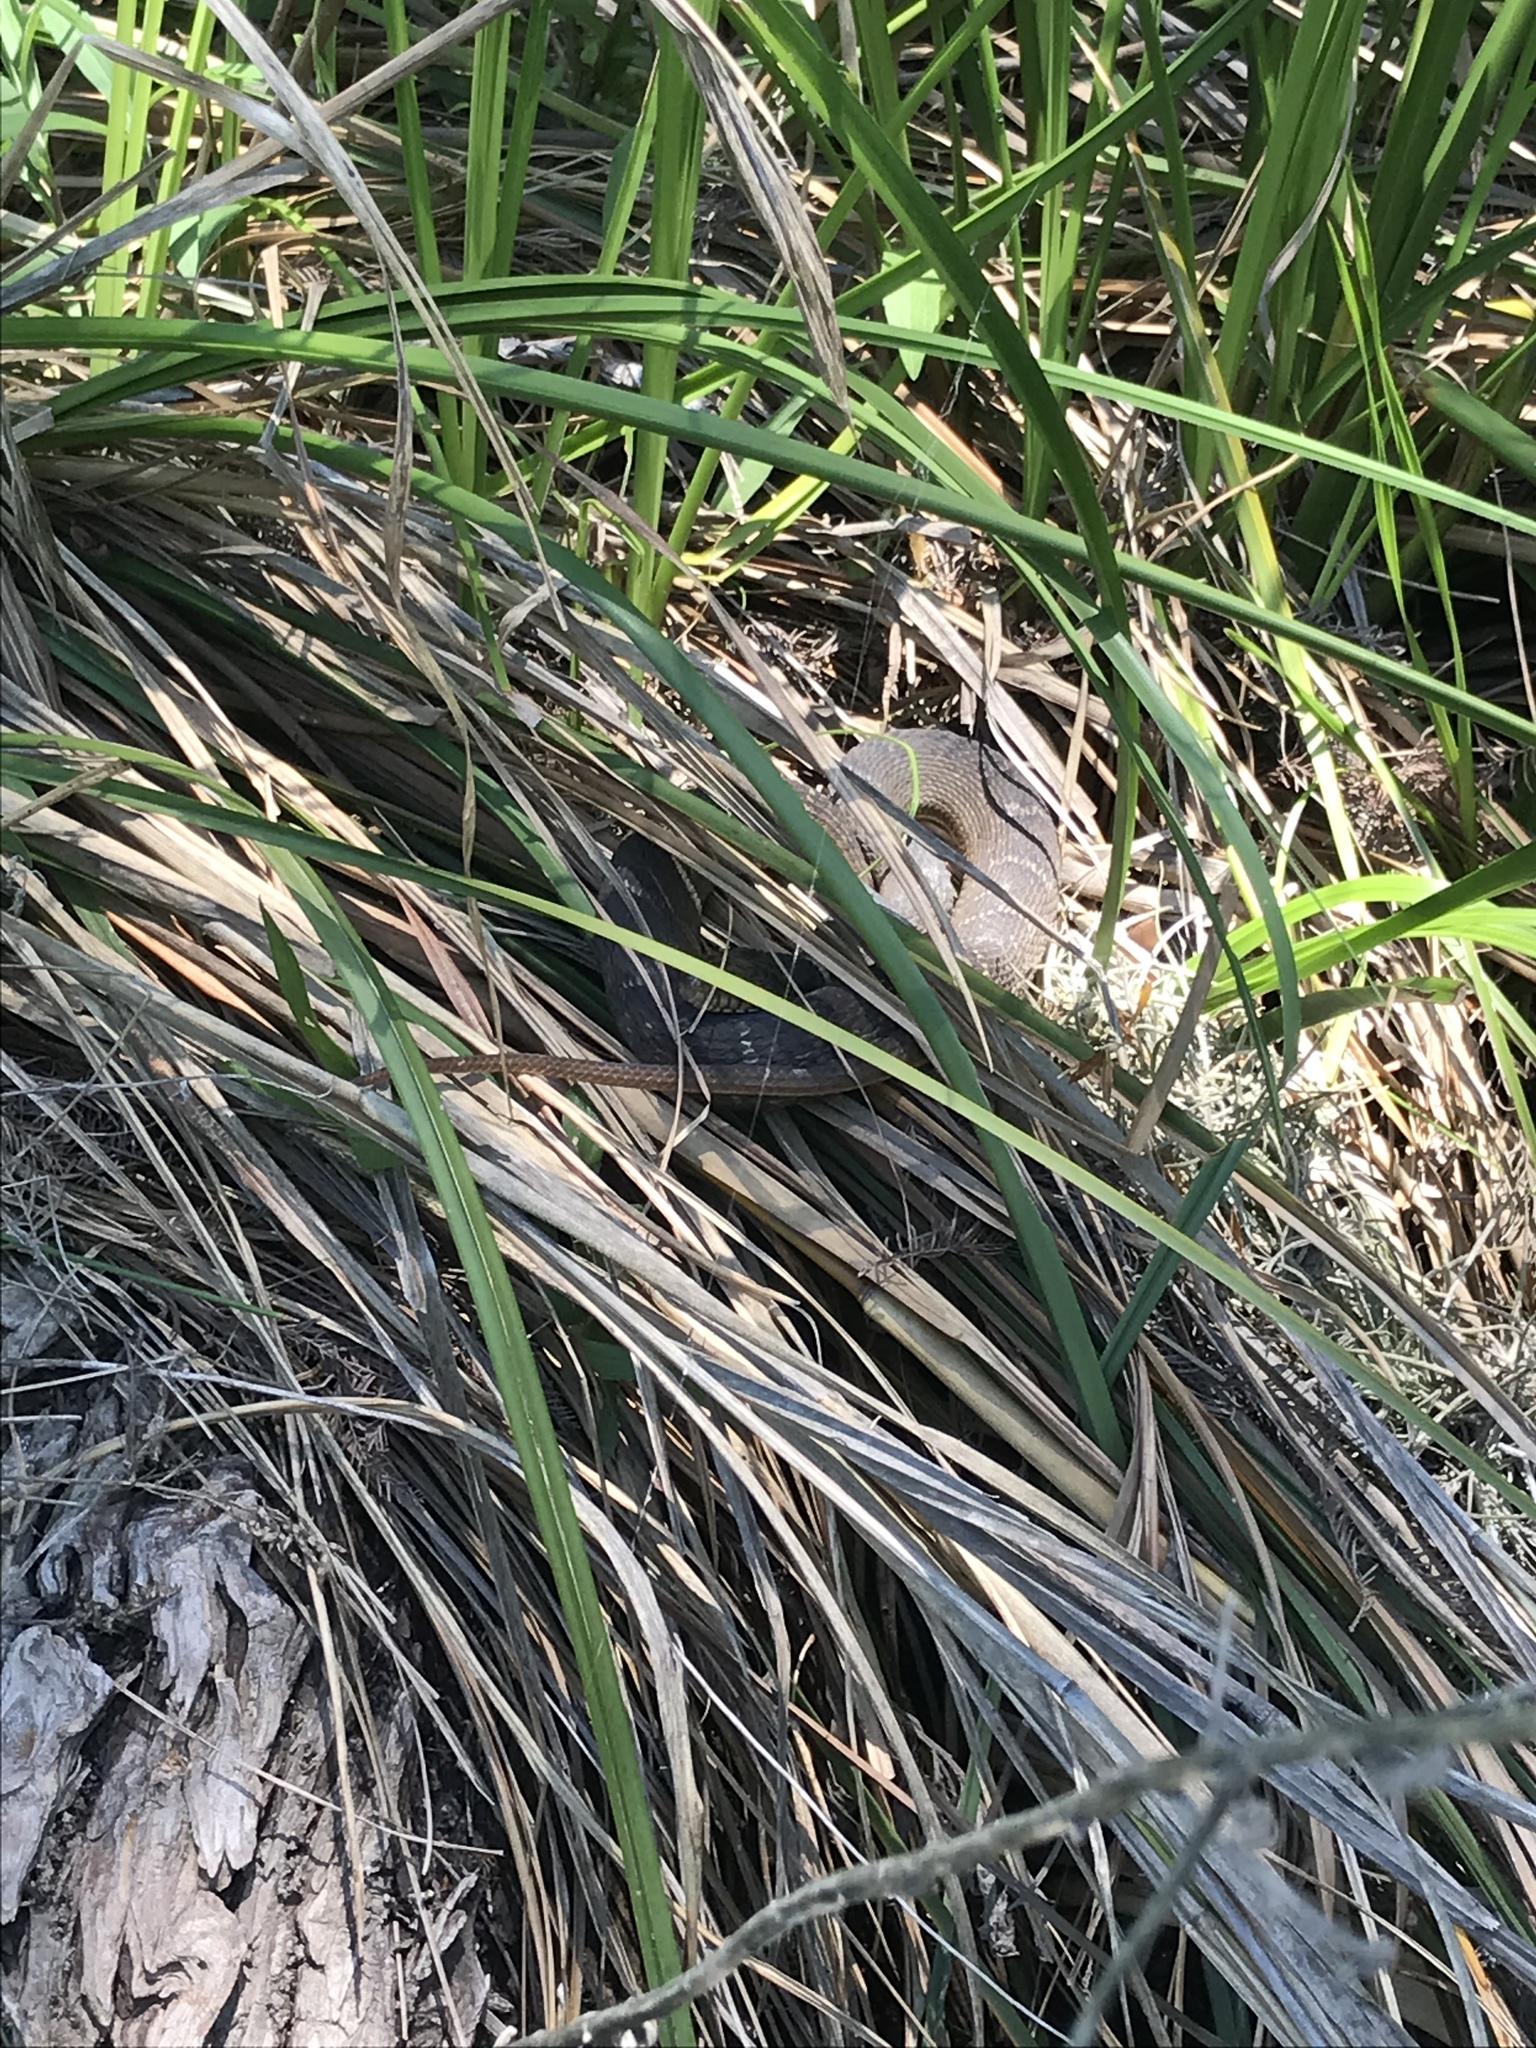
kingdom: Animalia
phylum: Chordata
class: Squamata
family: Colubridae
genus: Nerodia
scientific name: Nerodia erythrogaster
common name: Plainbelly water snake
